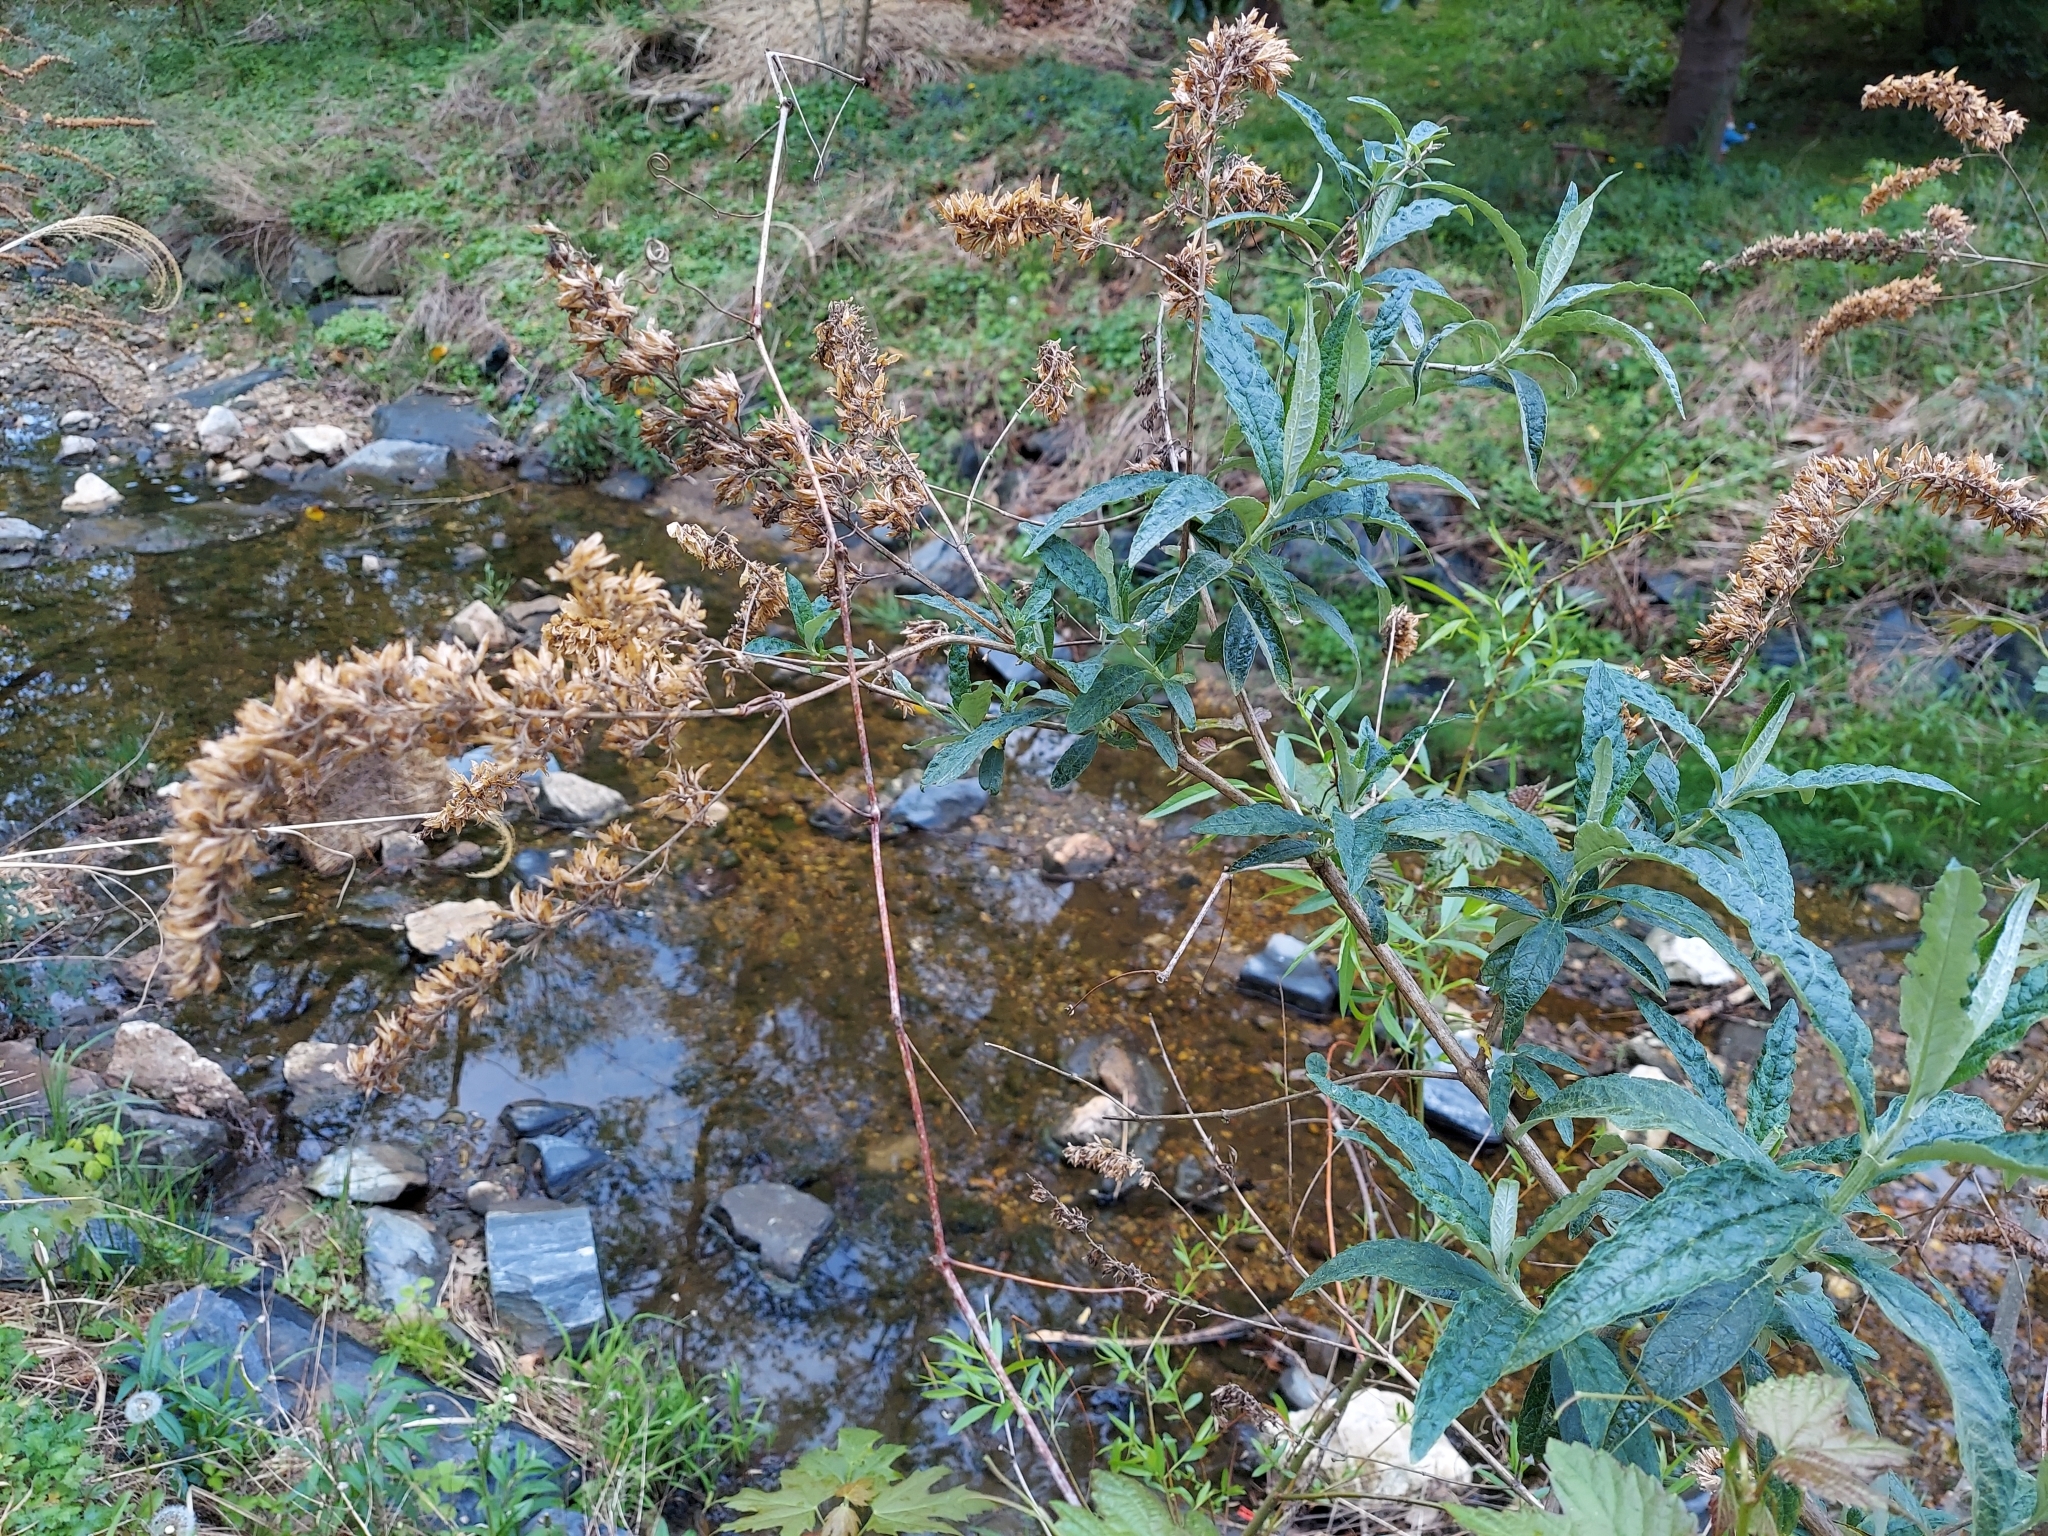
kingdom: Plantae
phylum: Tracheophyta
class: Magnoliopsida
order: Lamiales
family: Scrophulariaceae
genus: Buddleja
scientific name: Buddleja davidii
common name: Butterfly-bush
